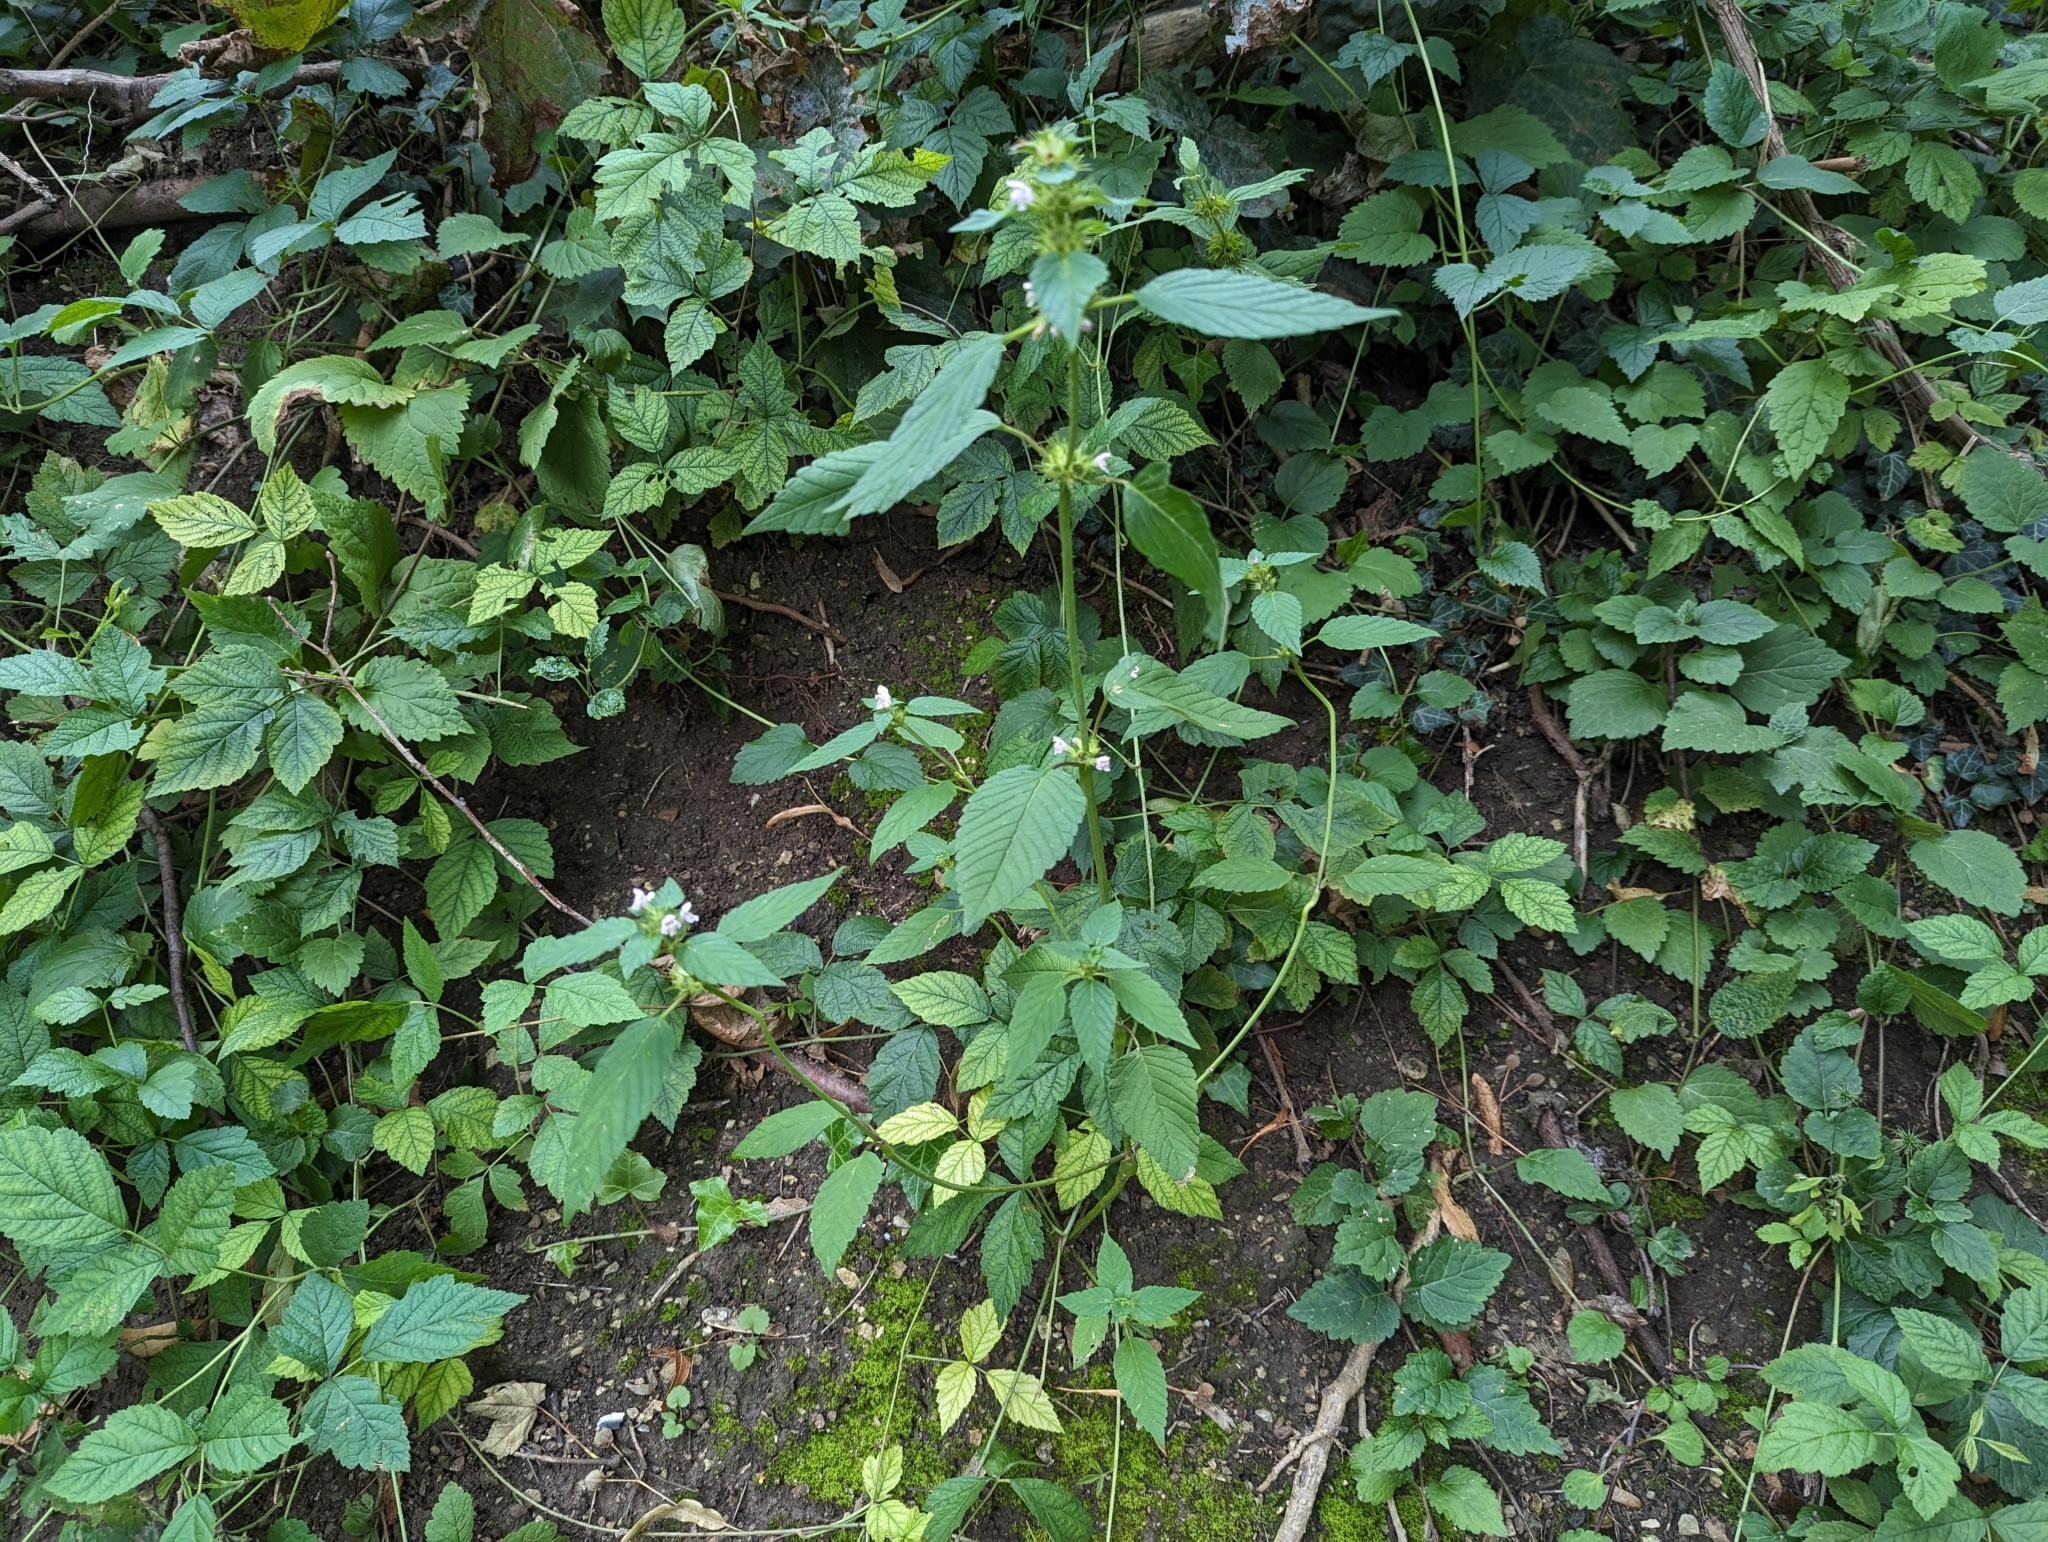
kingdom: Plantae
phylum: Tracheophyta
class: Magnoliopsida
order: Lamiales
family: Lamiaceae
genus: Galeopsis
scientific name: Galeopsis tetrahit
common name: Common hemp-nettle
